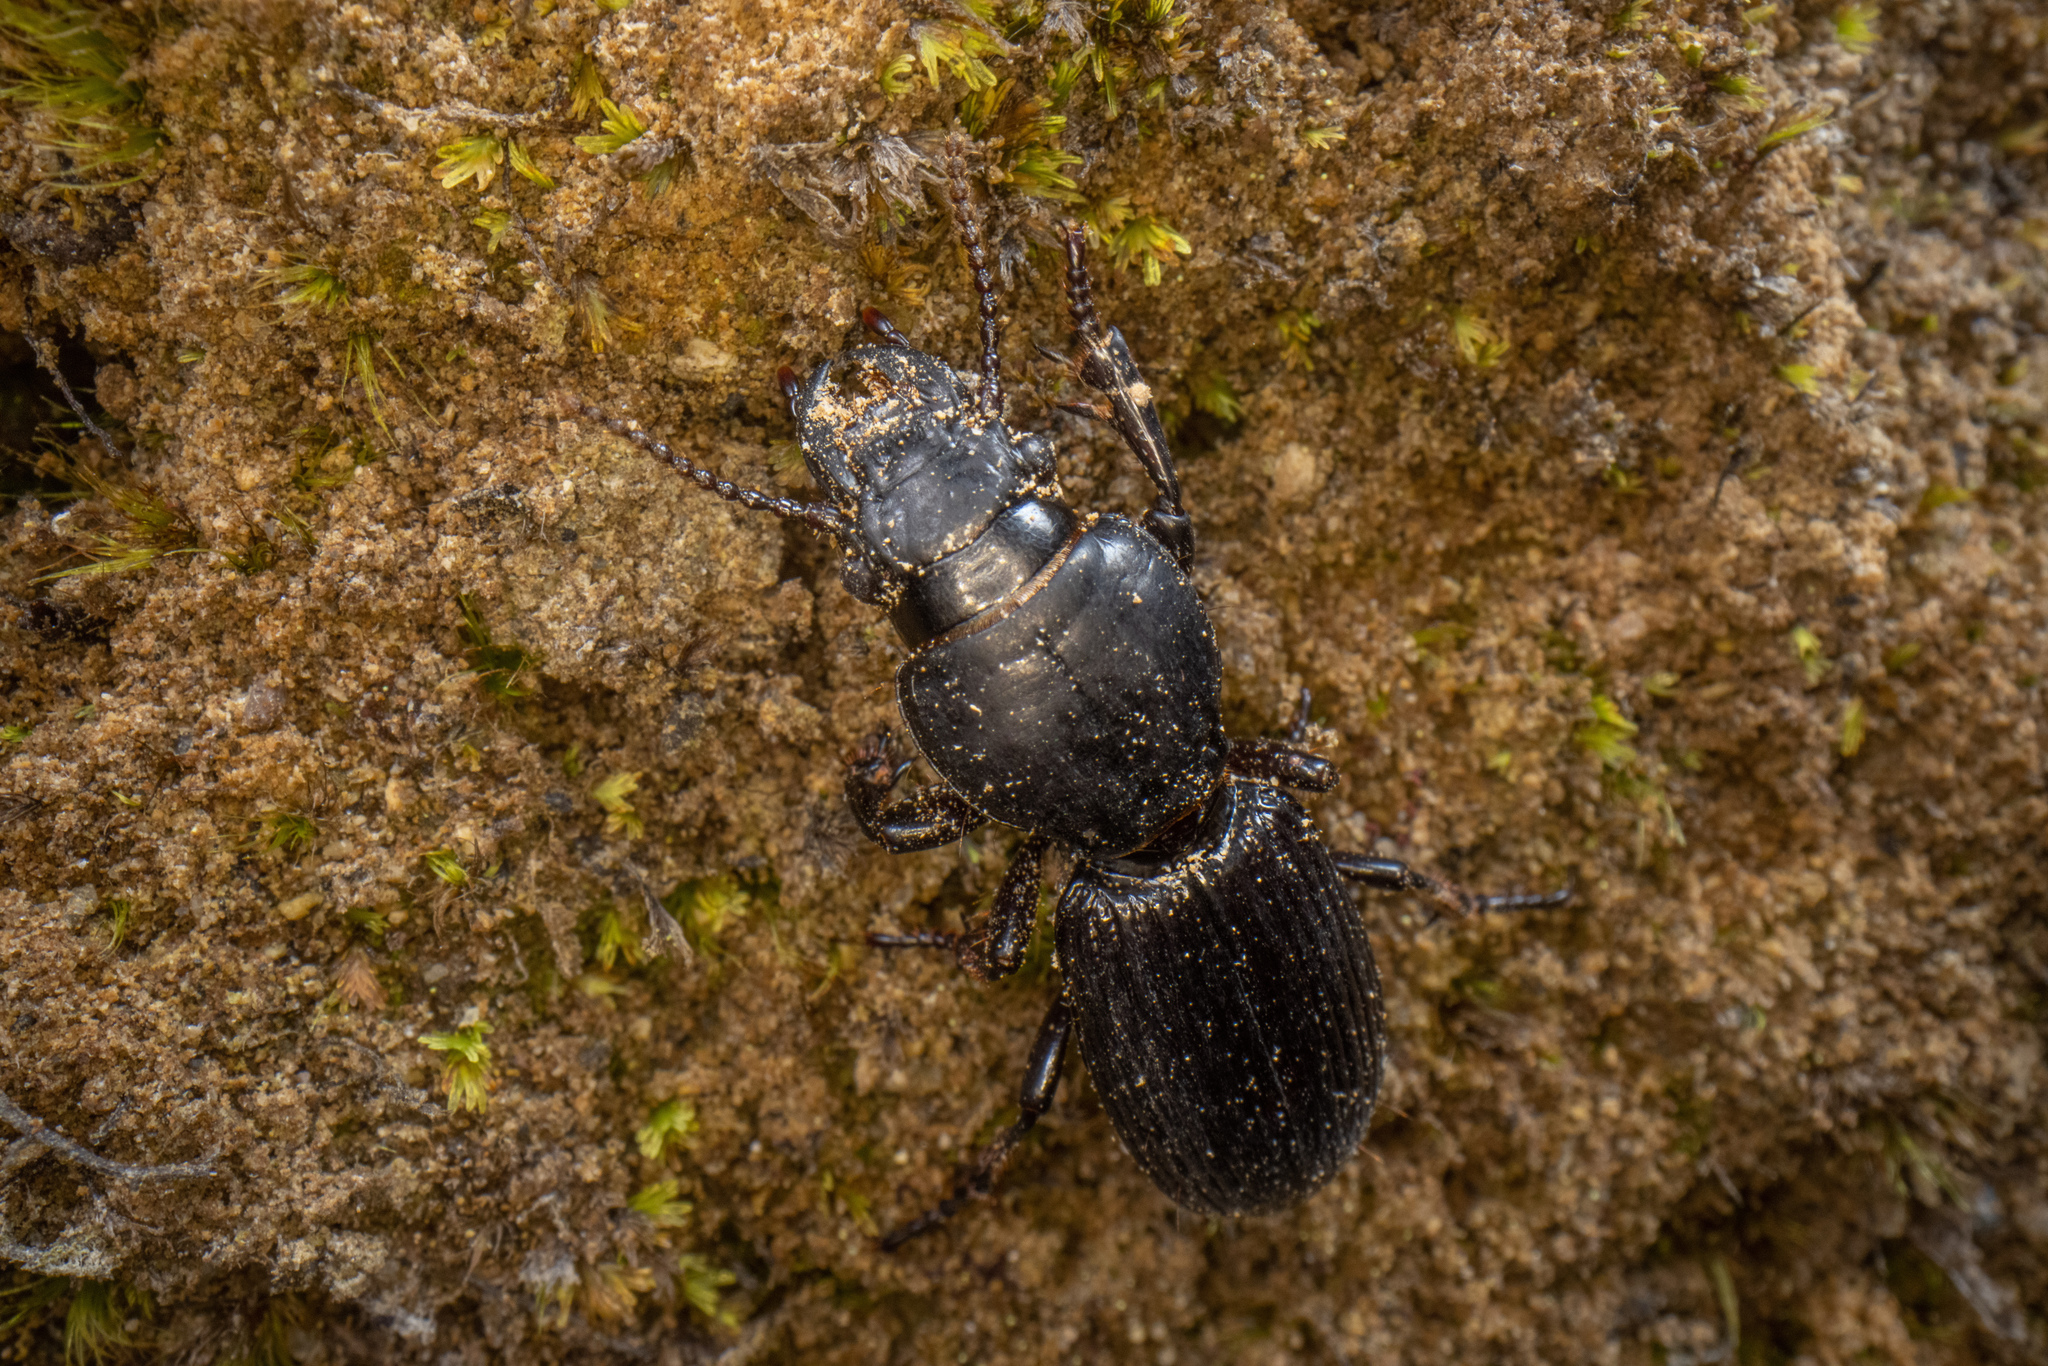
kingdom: Animalia
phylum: Arthropoda
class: Insecta
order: Coleoptera
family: Carabidae
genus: Mecodema
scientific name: Mecodema validum
